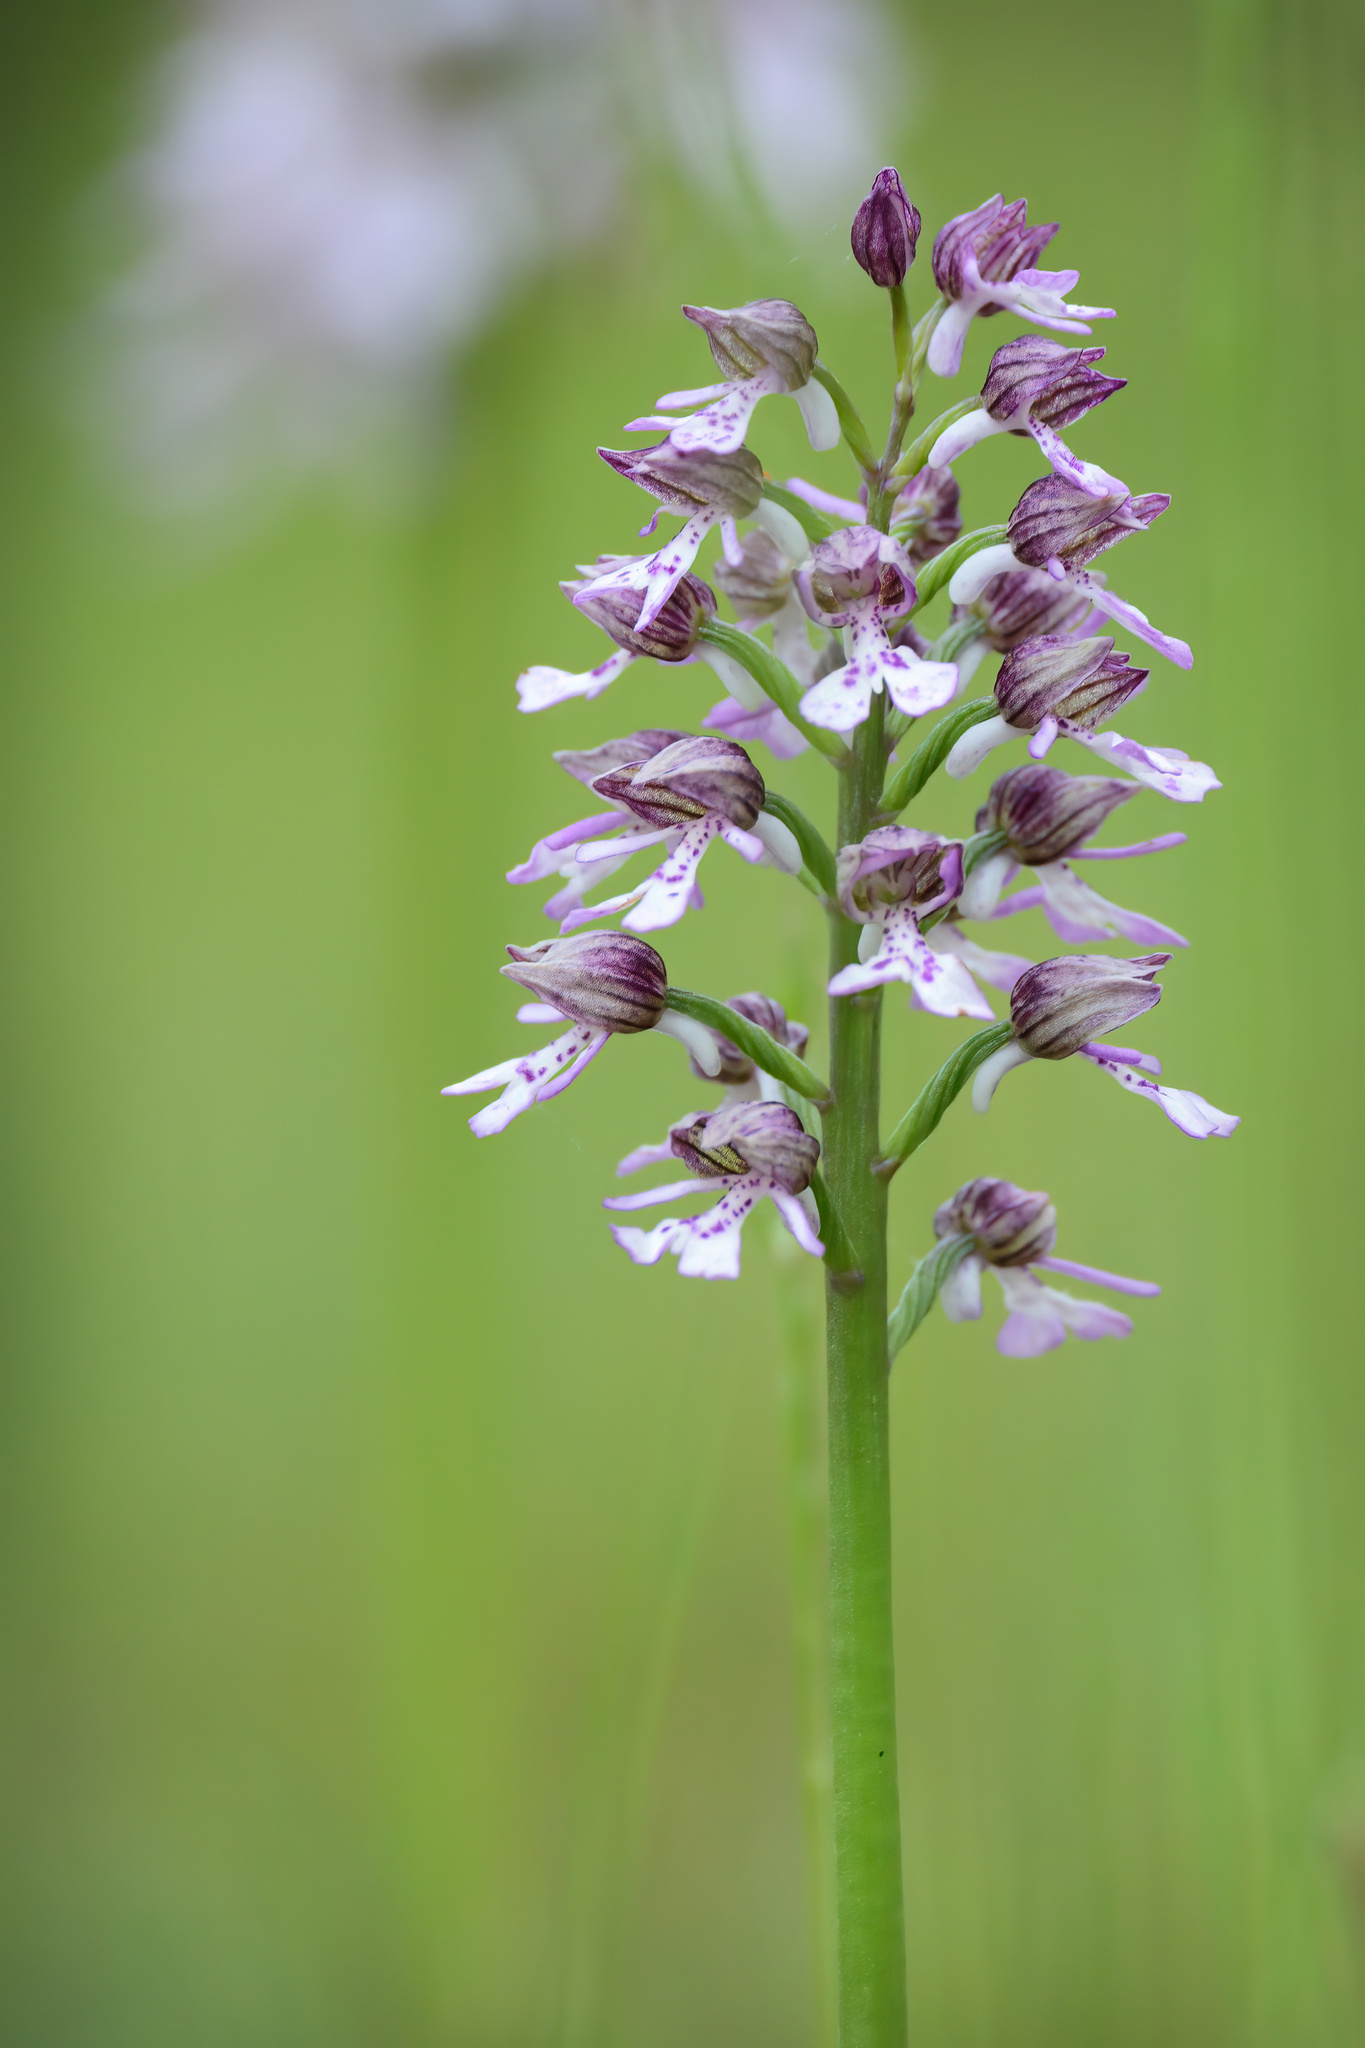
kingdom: Plantae
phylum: Tracheophyta
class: Liliopsida
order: Asparagales
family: Orchidaceae
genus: Orchis
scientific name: Orchis purpurea
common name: Lady orchid
